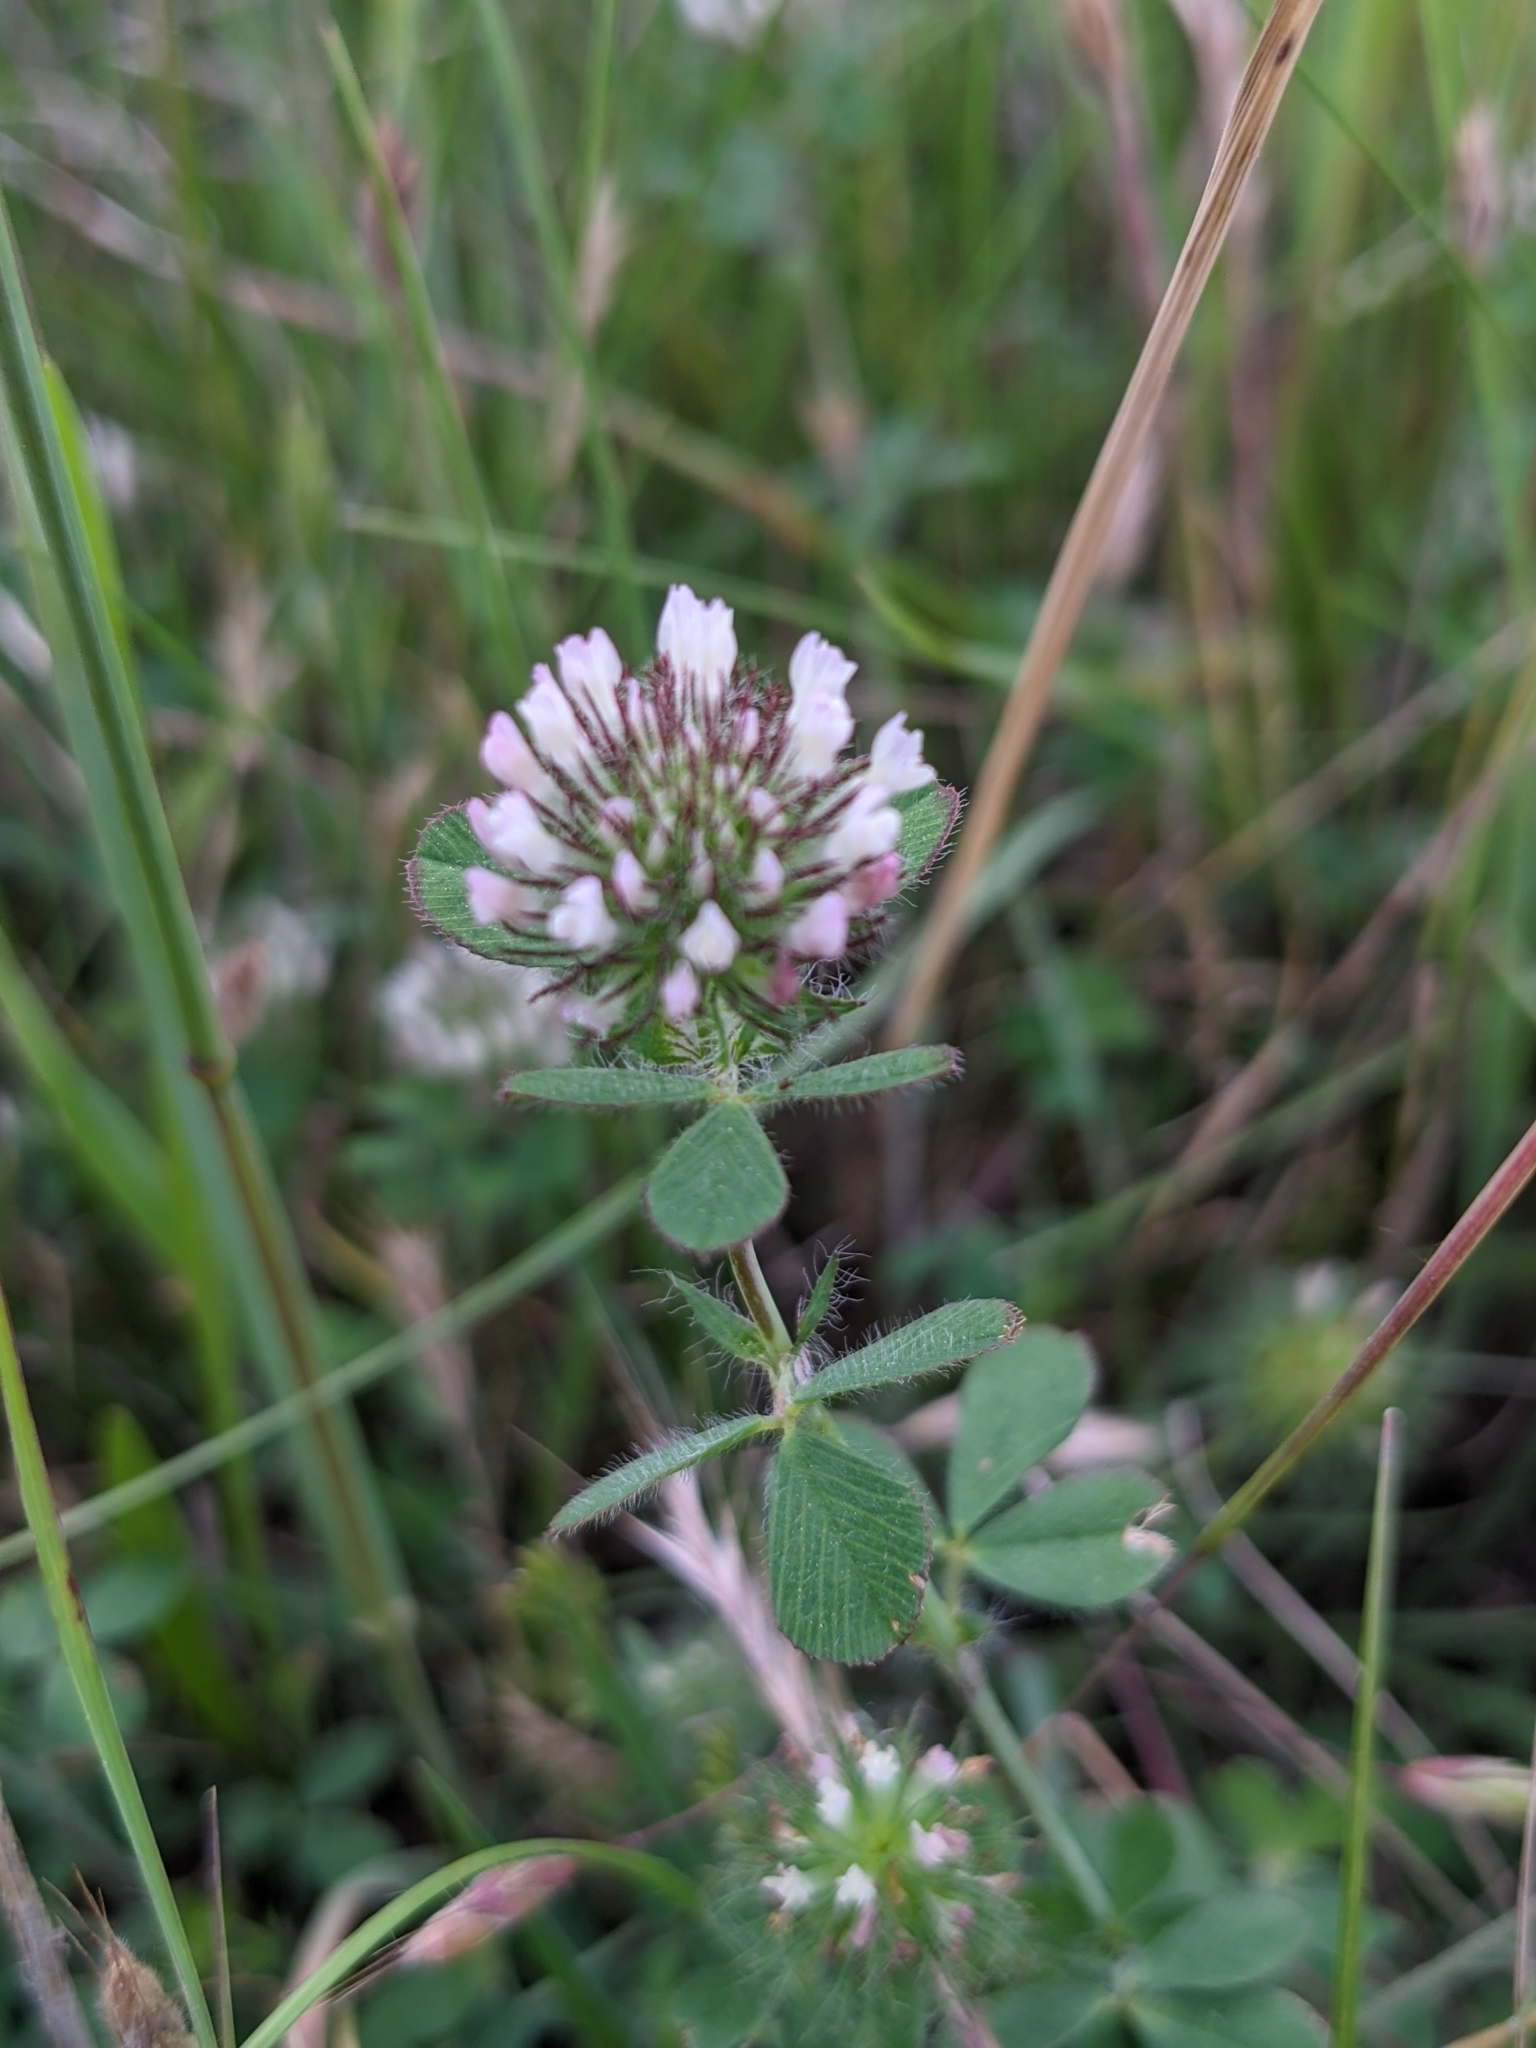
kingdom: Plantae
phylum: Tracheophyta
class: Magnoliopsida
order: Fabales
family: Fabaceae
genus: Trifolium
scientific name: Trifolium lappaceum
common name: Bur clover
